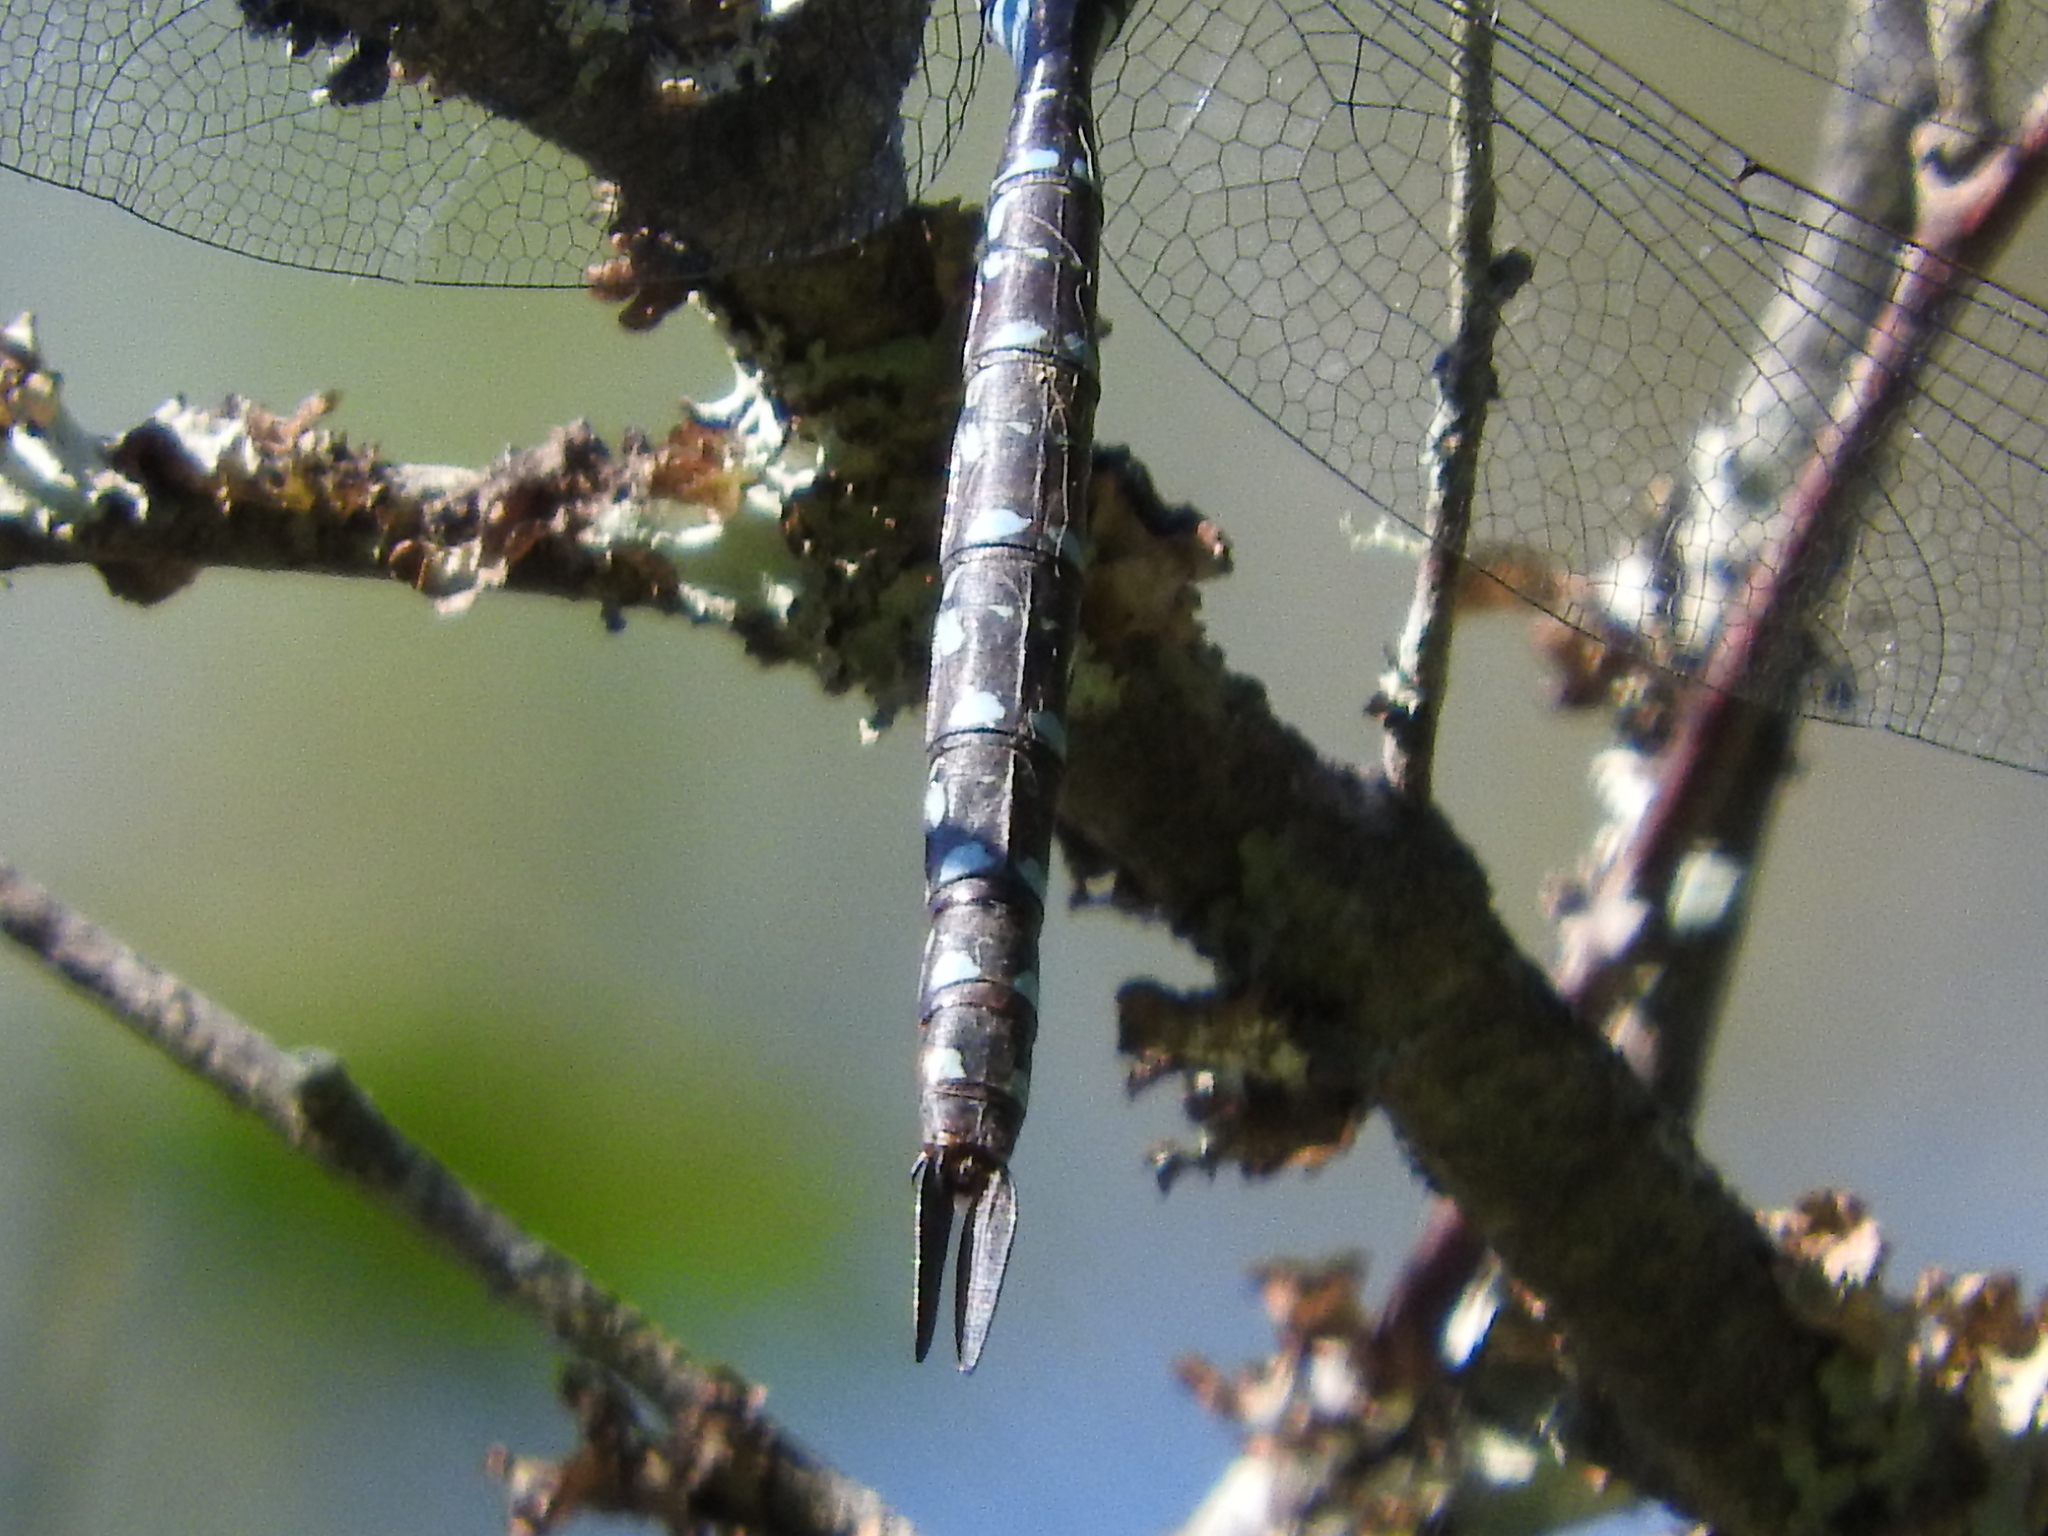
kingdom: Animalia
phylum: Arthropoda
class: Insecta
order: Odonata
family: Aeshnidae
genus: Aeshna
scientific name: Aeshna tuberculifera
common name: Aeschne à tubercules
